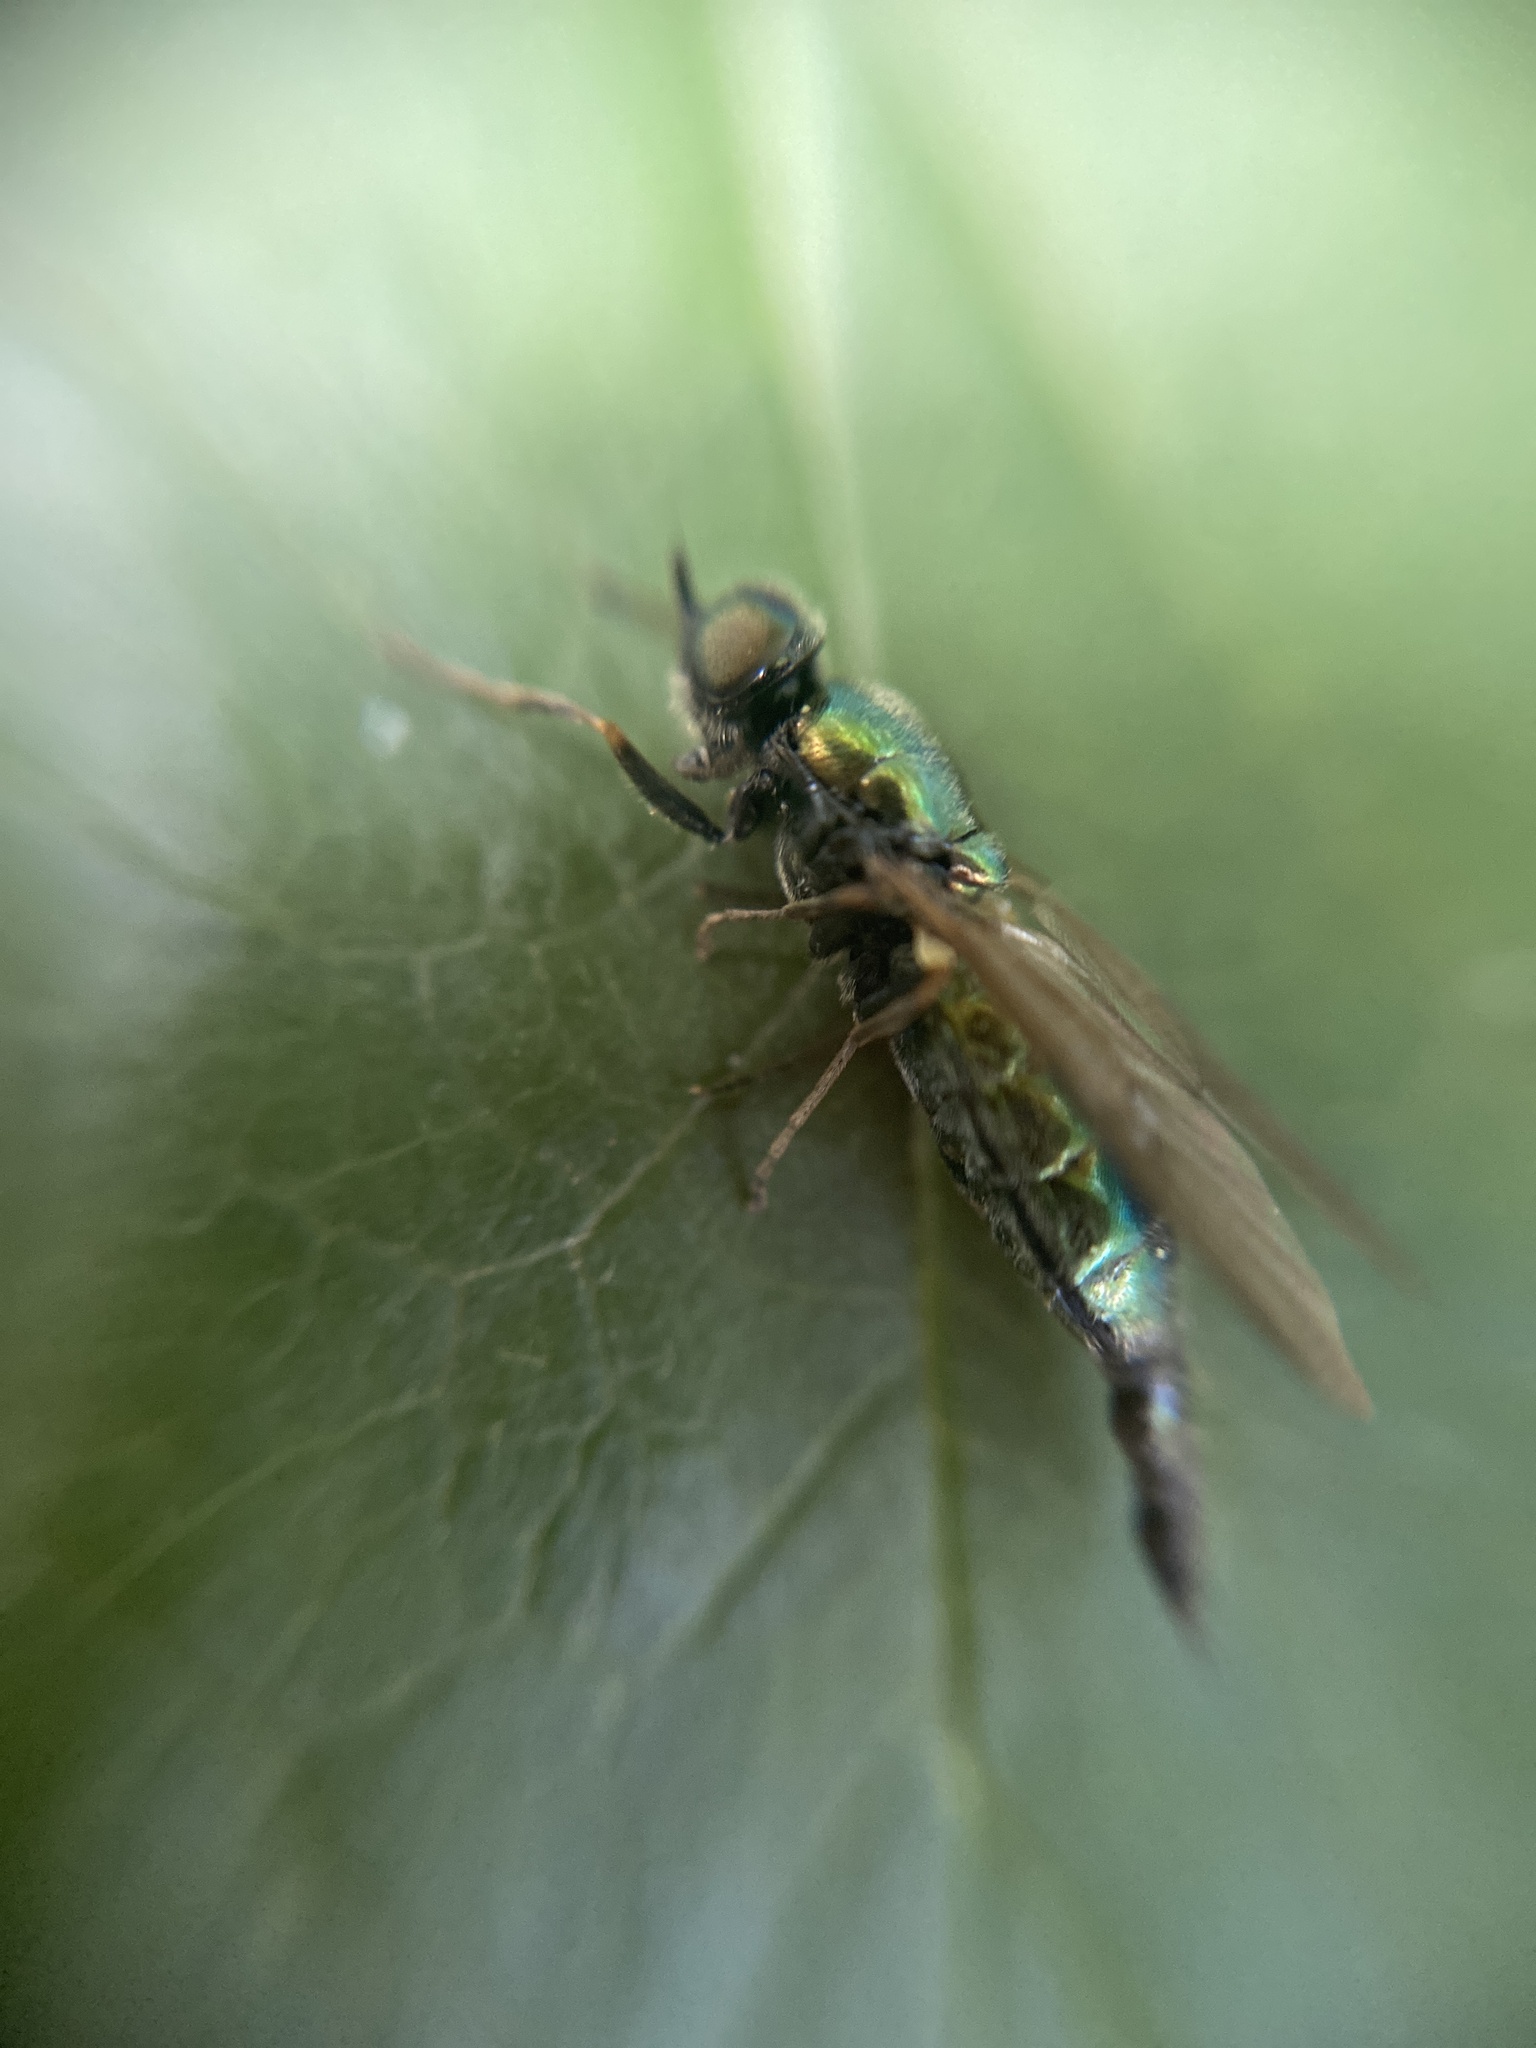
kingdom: Animalia
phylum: Arthropoda
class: Insecta
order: Diptera
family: Stratiomyidae
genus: Chloromyia
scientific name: Chloromyia formosa
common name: Soldier fly
